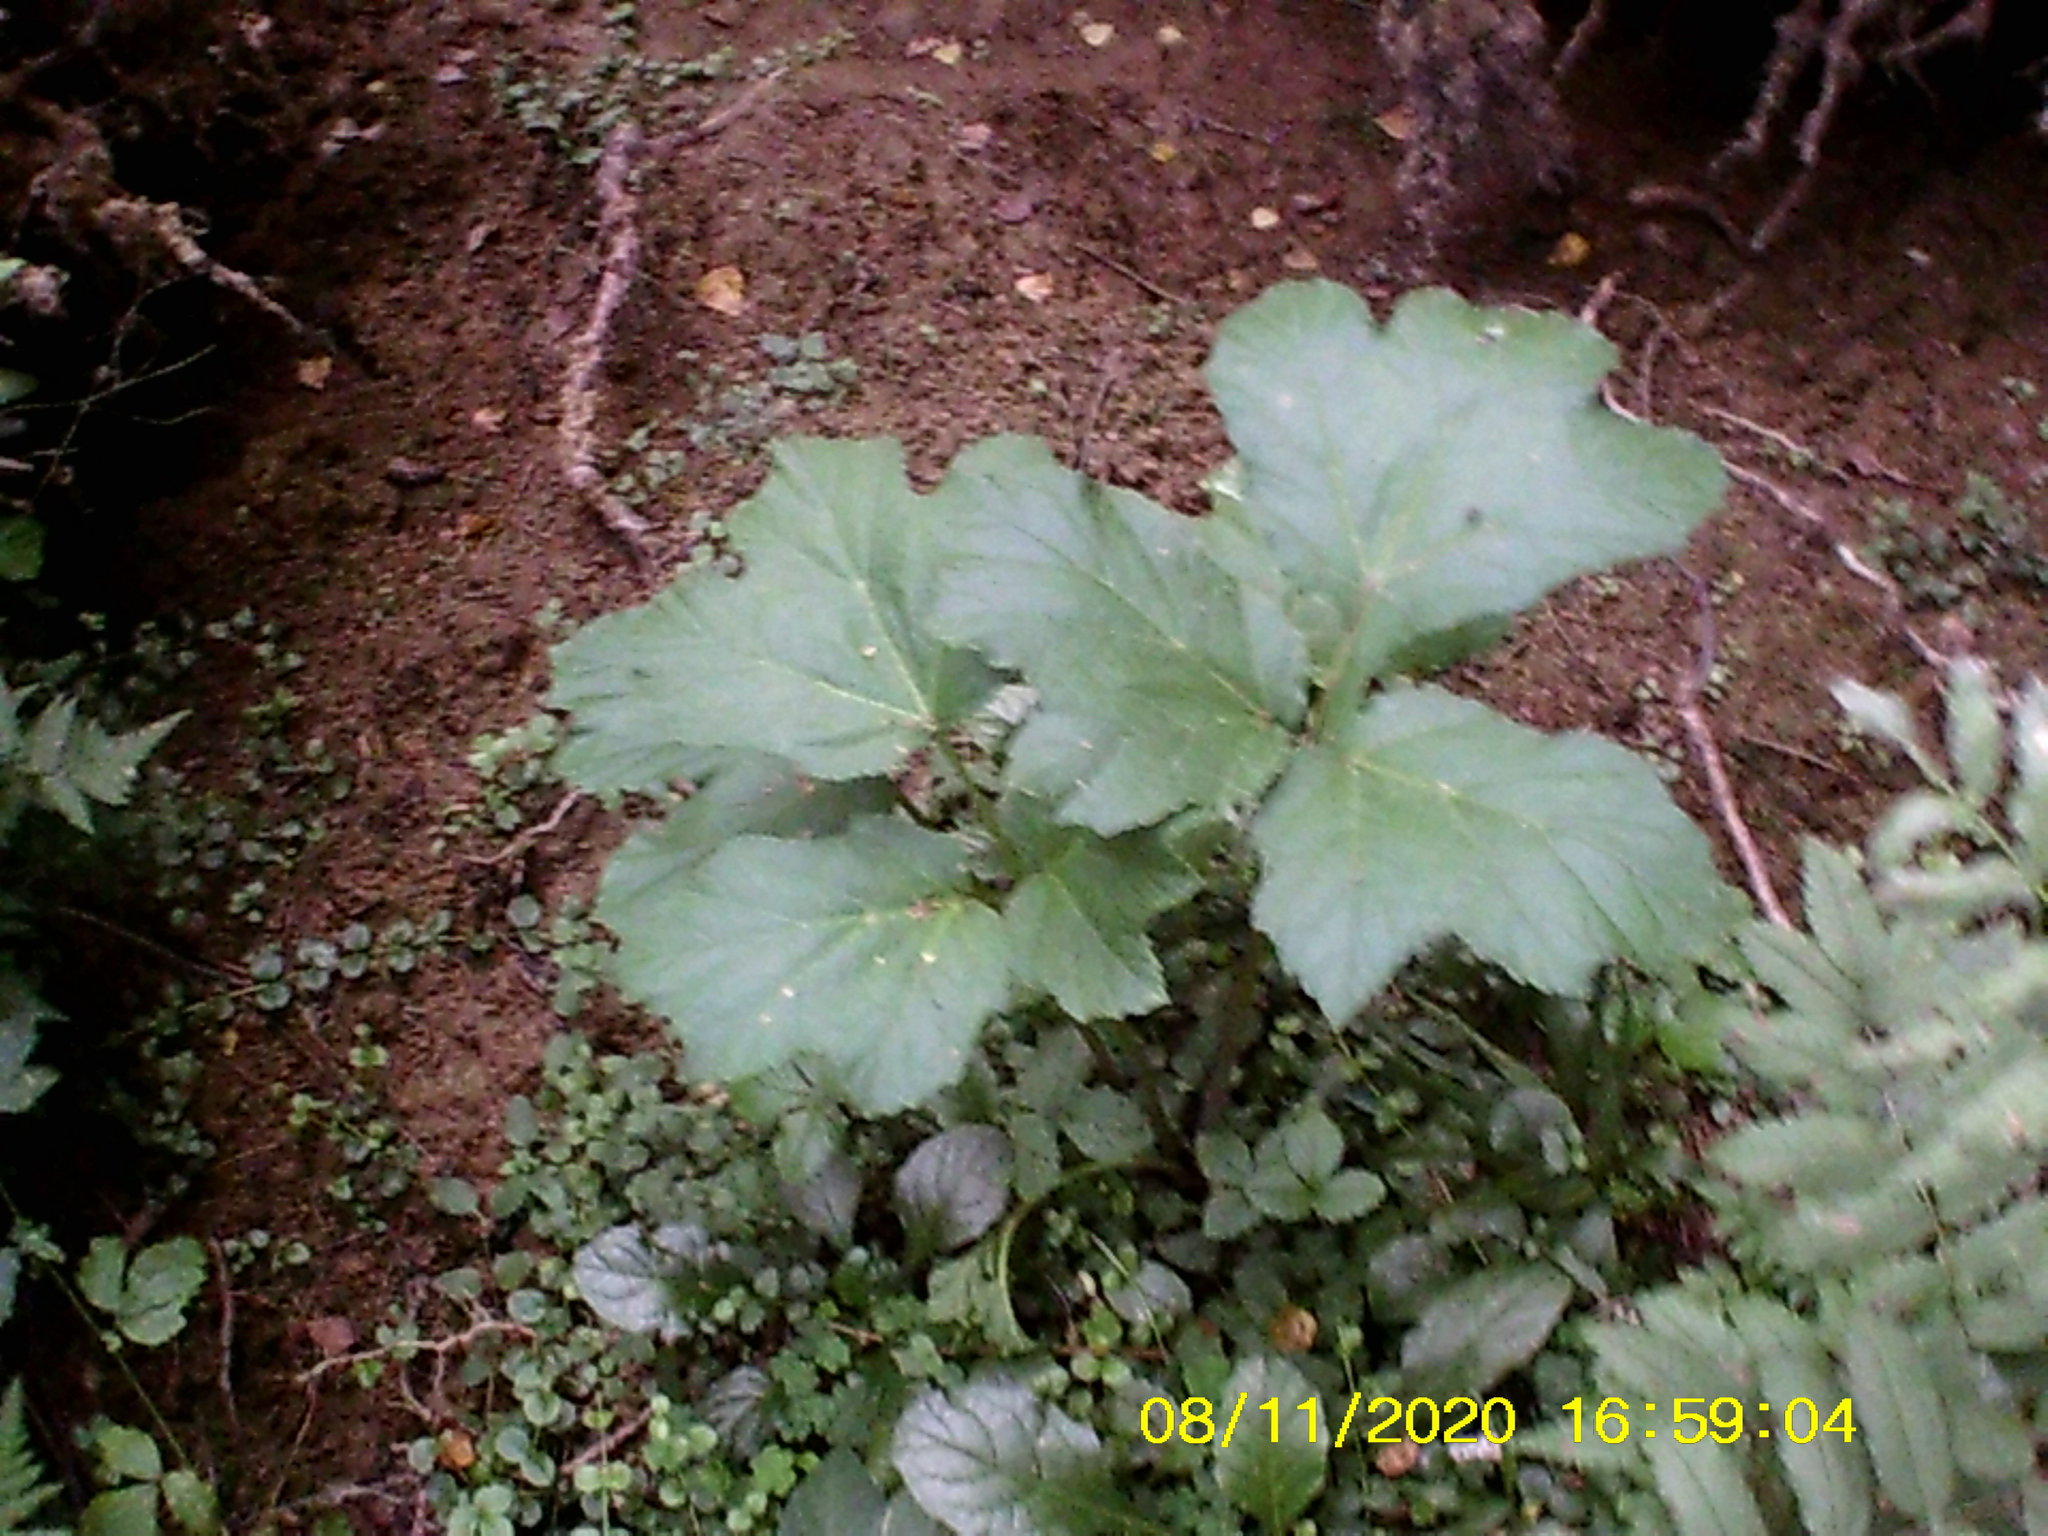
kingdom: Plantae
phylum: Tracheophyta
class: Magnoliopsida
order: Apiales
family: Apiaceae
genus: Heracleum
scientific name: Heracleum sosnowskyi
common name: Sosnowsky's hogweed
